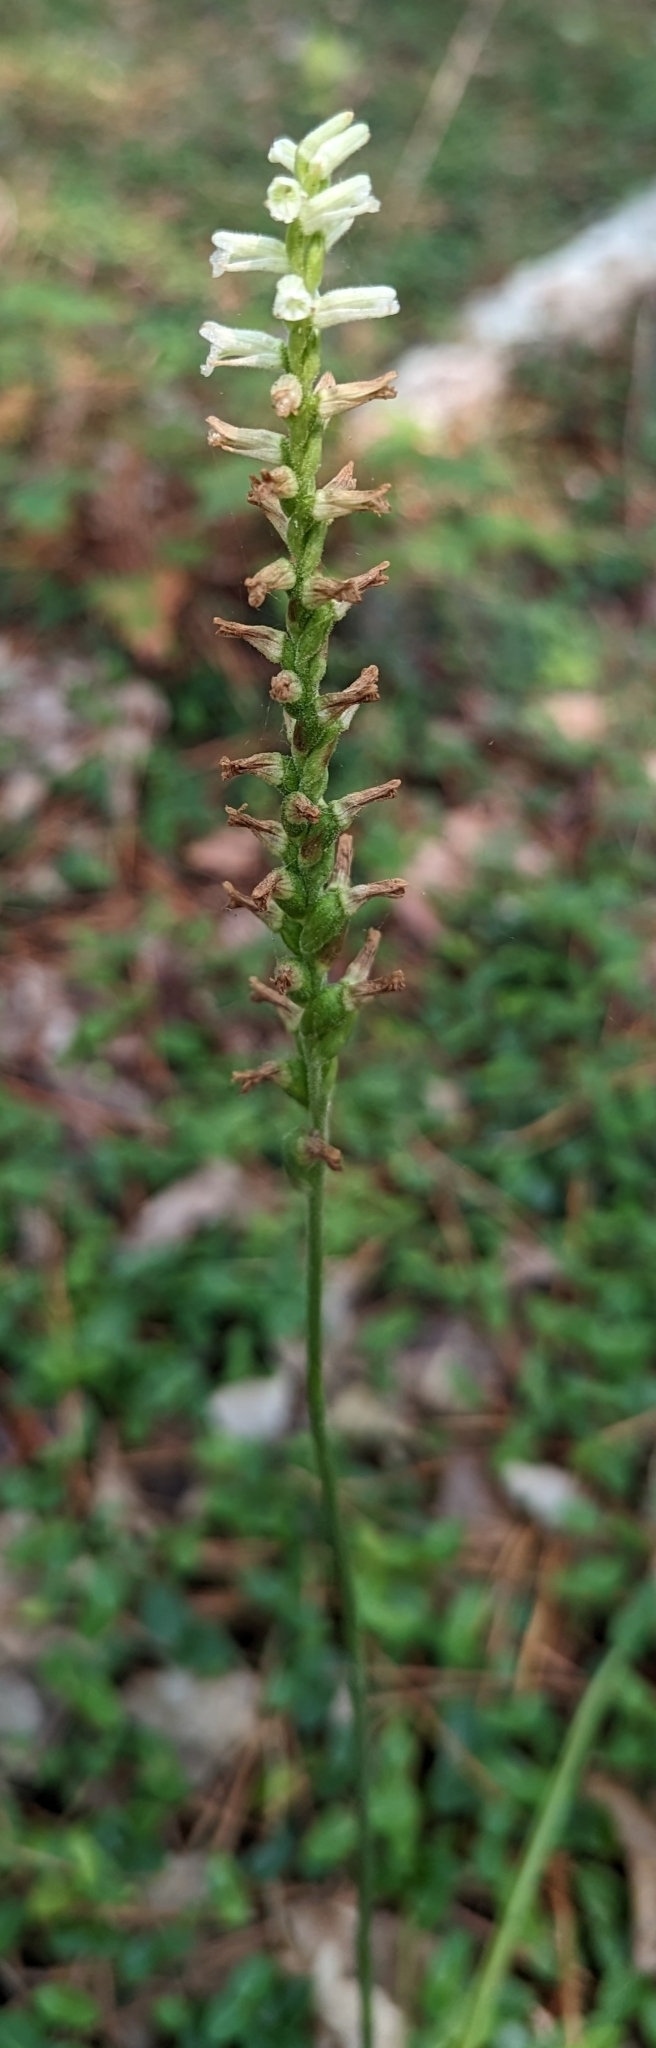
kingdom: Plantae
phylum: Tracheophyta
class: Liliopsida
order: Asparagales
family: Orchidaceae
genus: Spiranthes
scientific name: Spiranthes praecox
